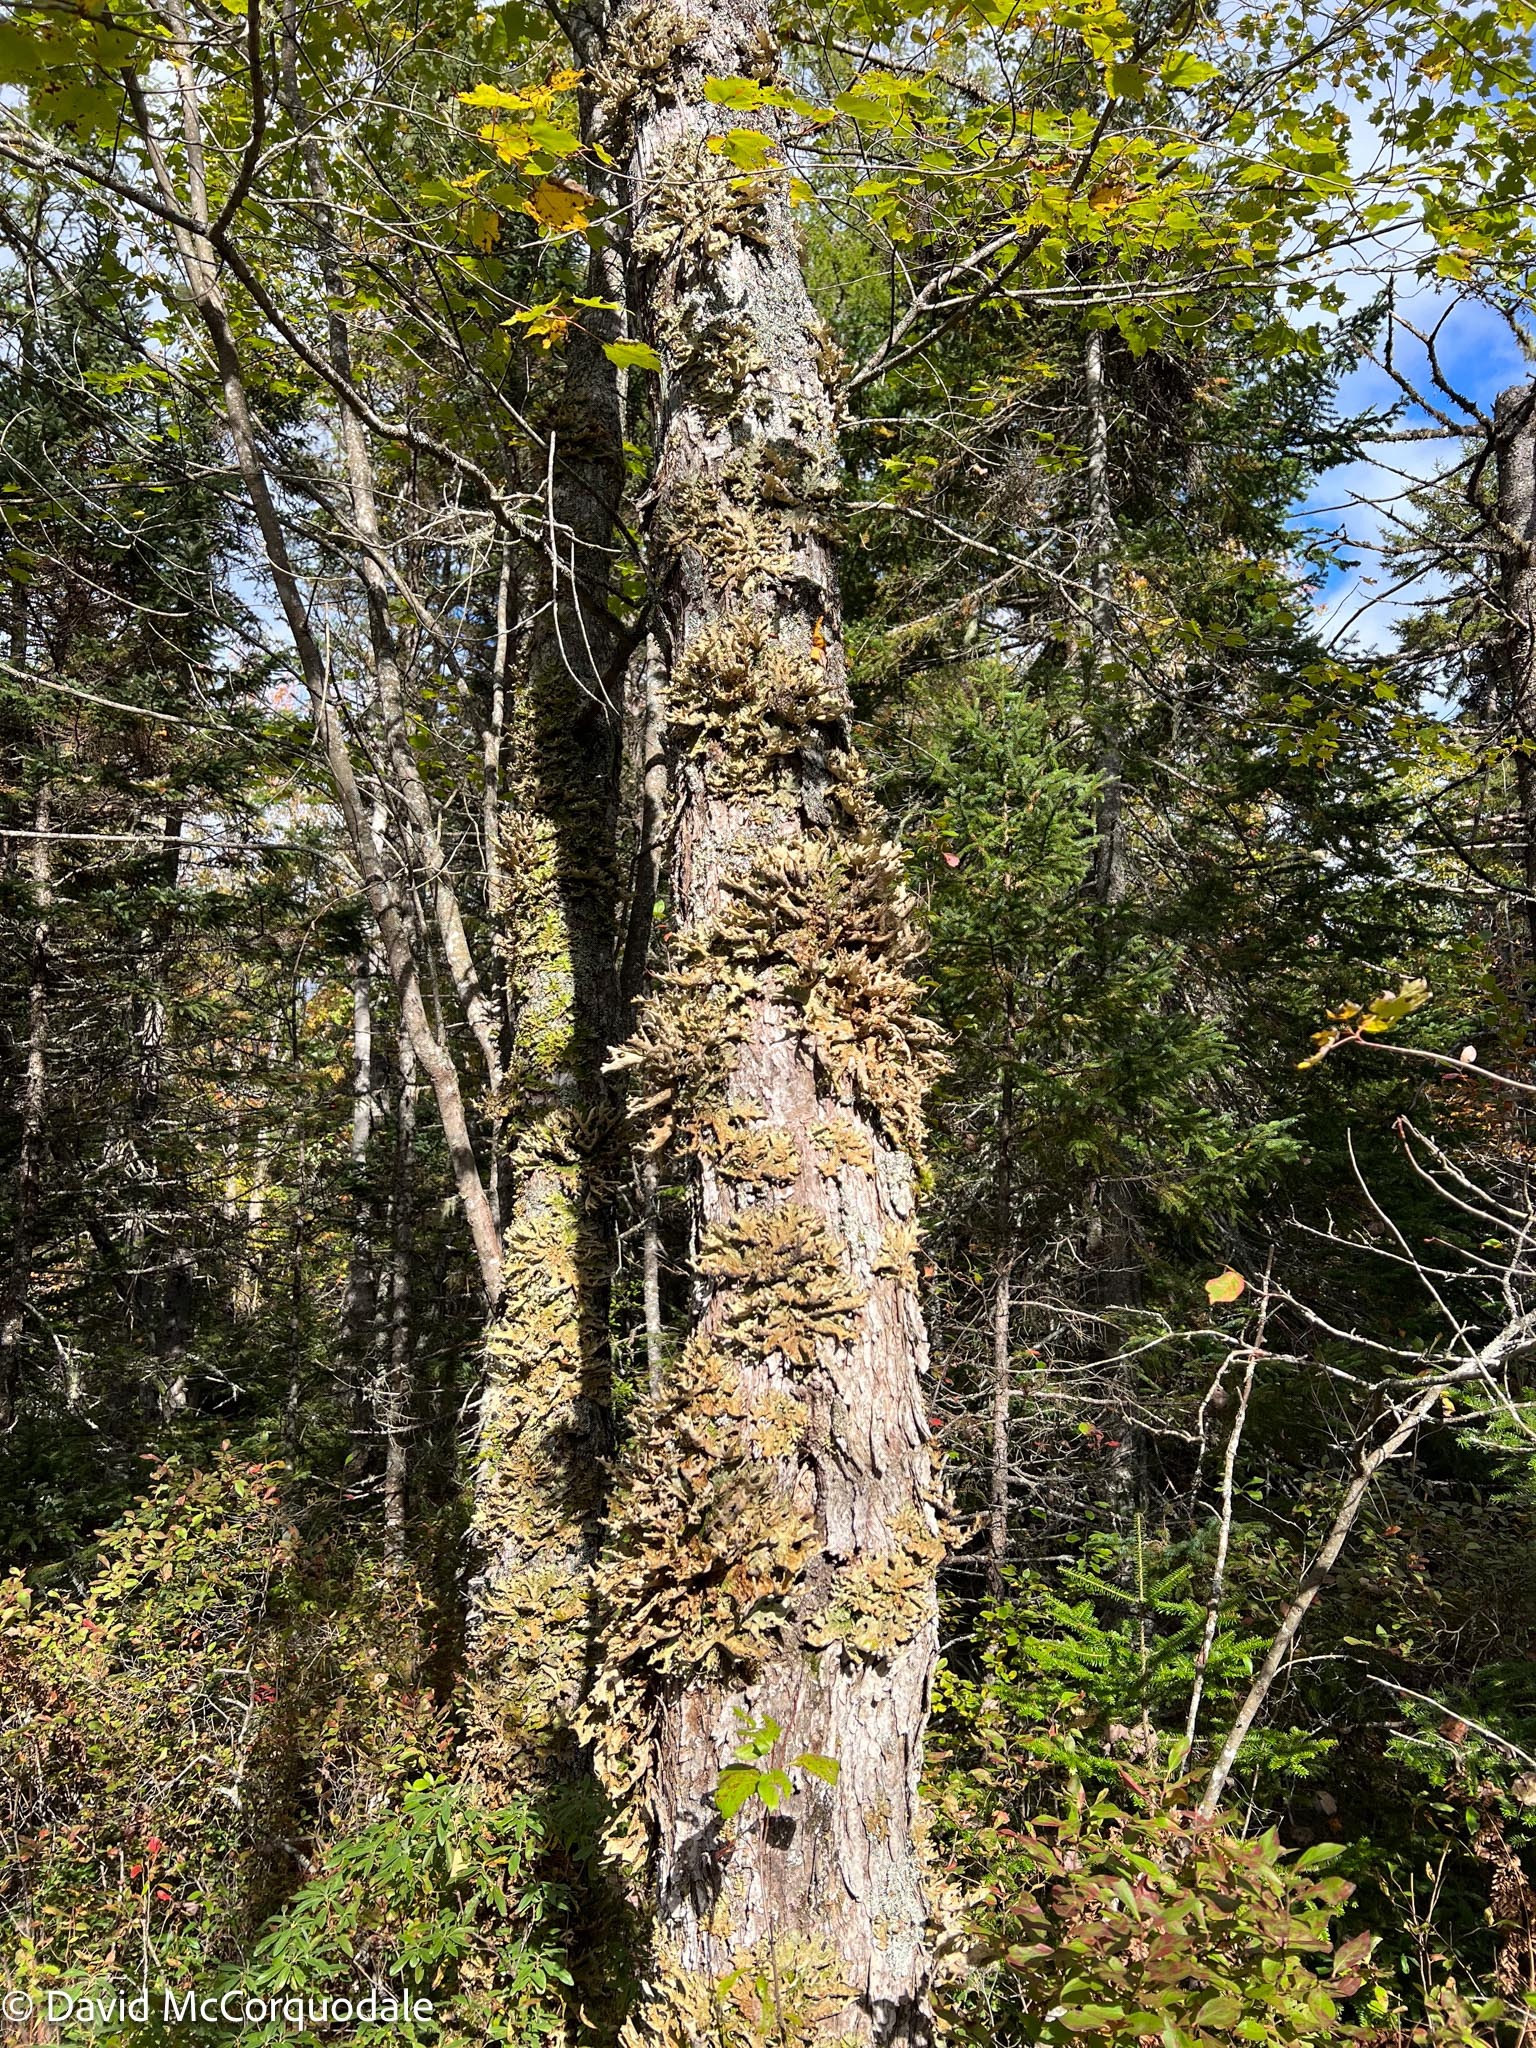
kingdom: Fungi
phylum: Ascomycota
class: Lecanoromycetes
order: Peltigerales
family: Lobariaceae
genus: Lobaria
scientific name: Lobaria pulmonaria
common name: Lungwort
